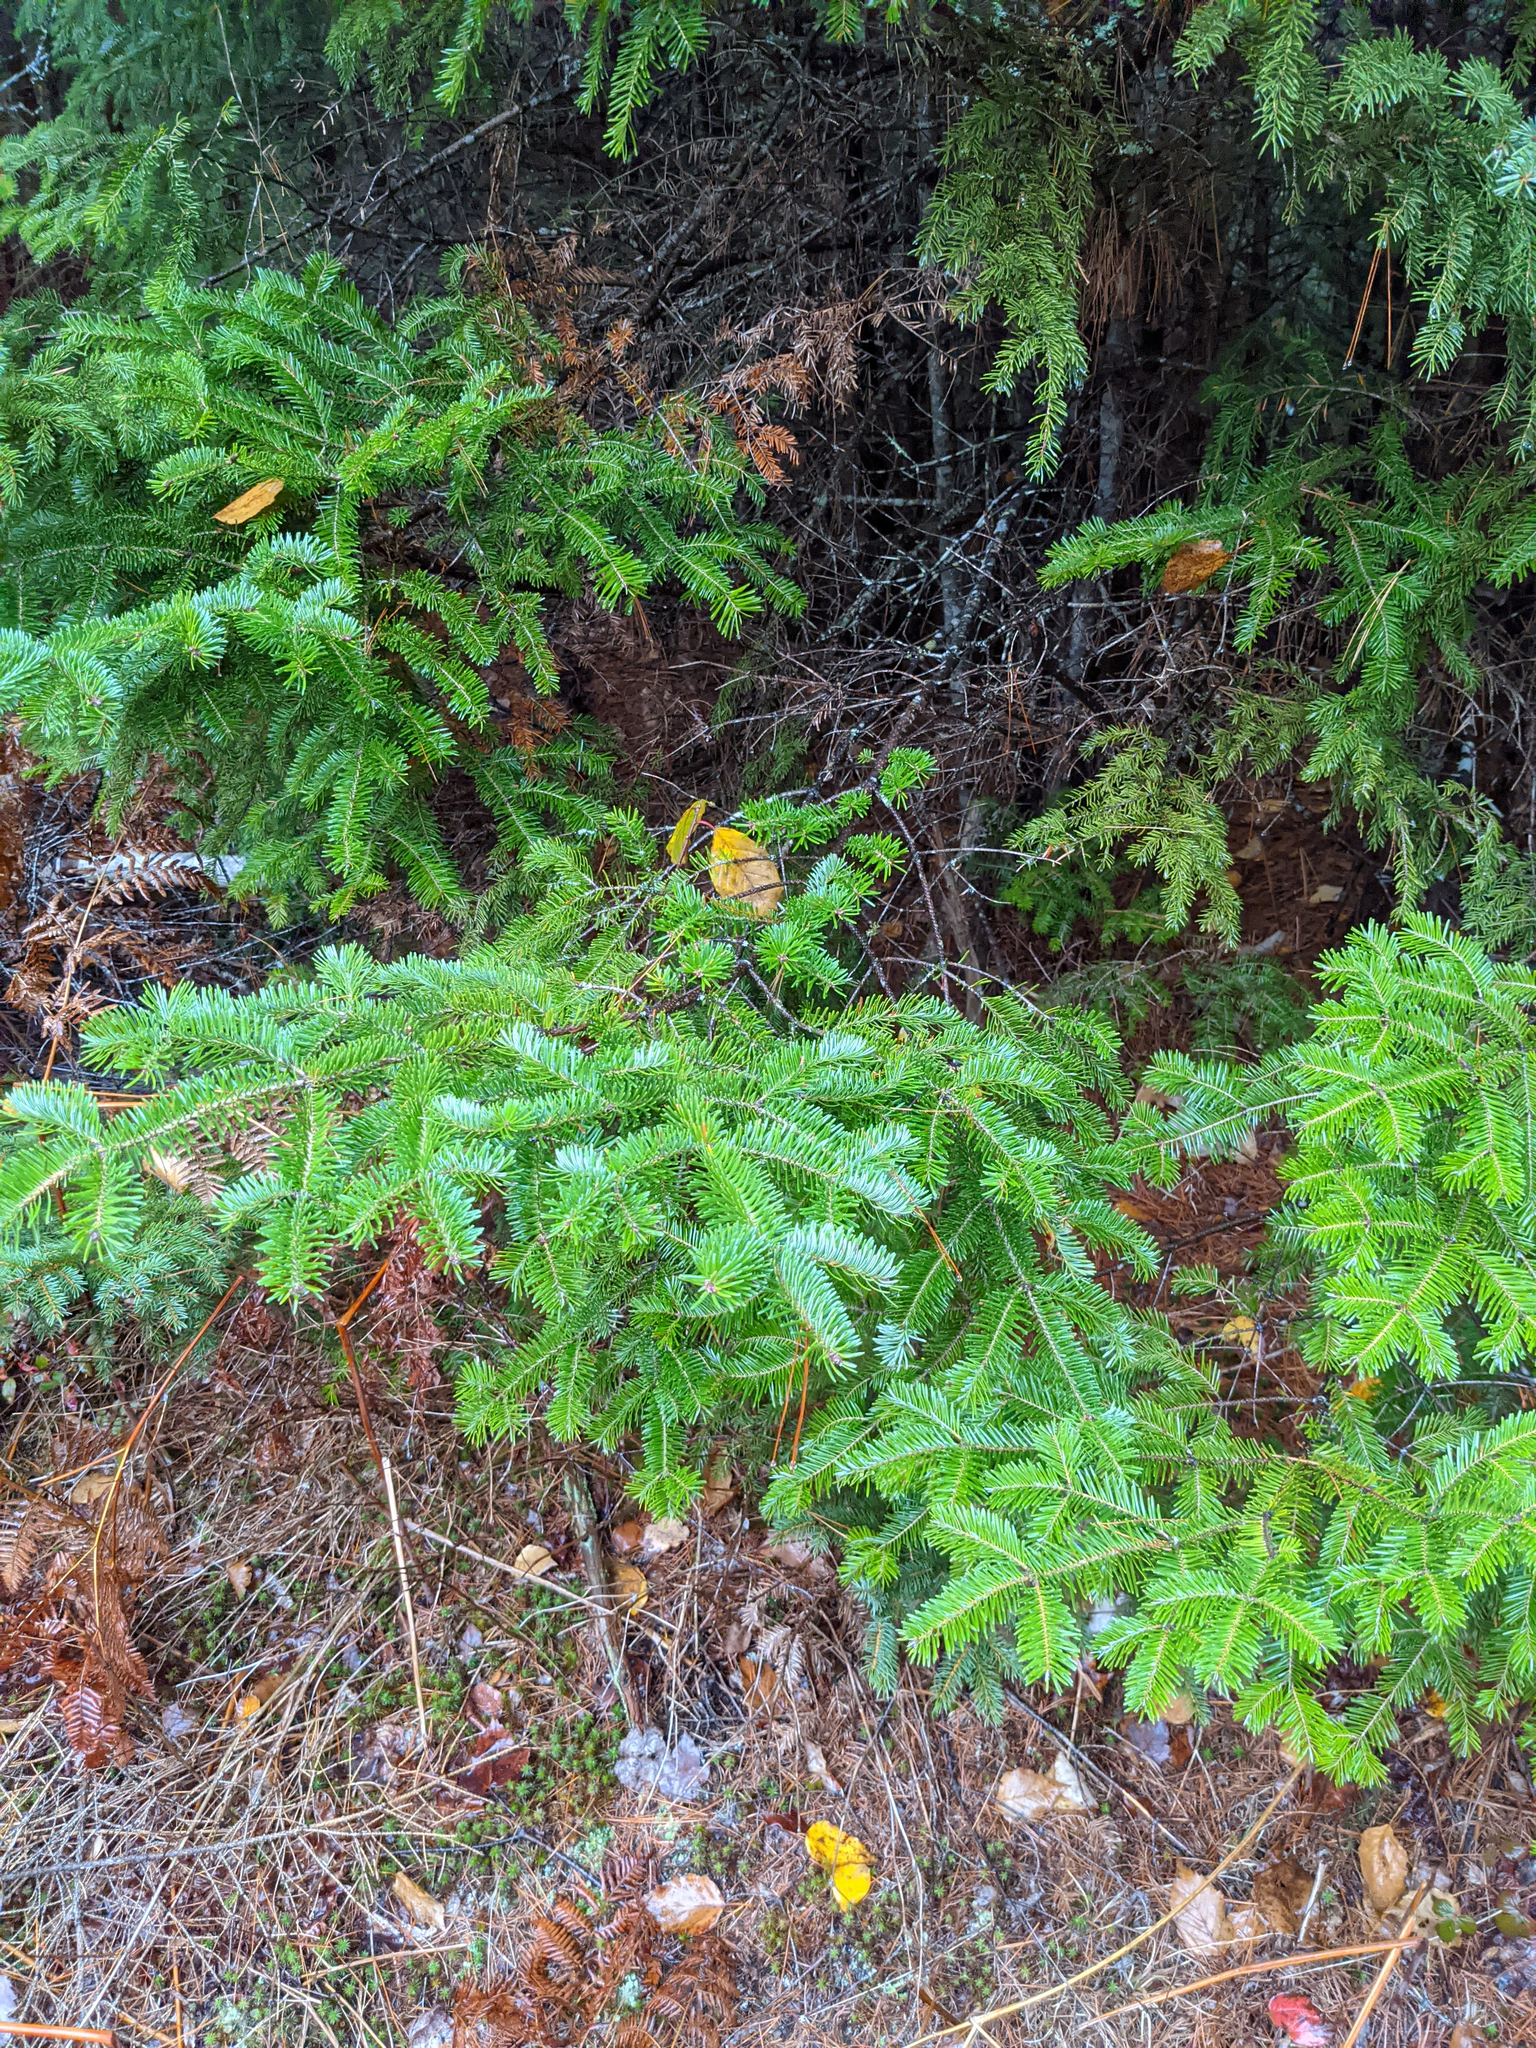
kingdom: Plantae
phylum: Tracheophyta
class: Pinopsida
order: Pinales
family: Pinaceae
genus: Abies
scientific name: Abies balsamea
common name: Balsam fir
